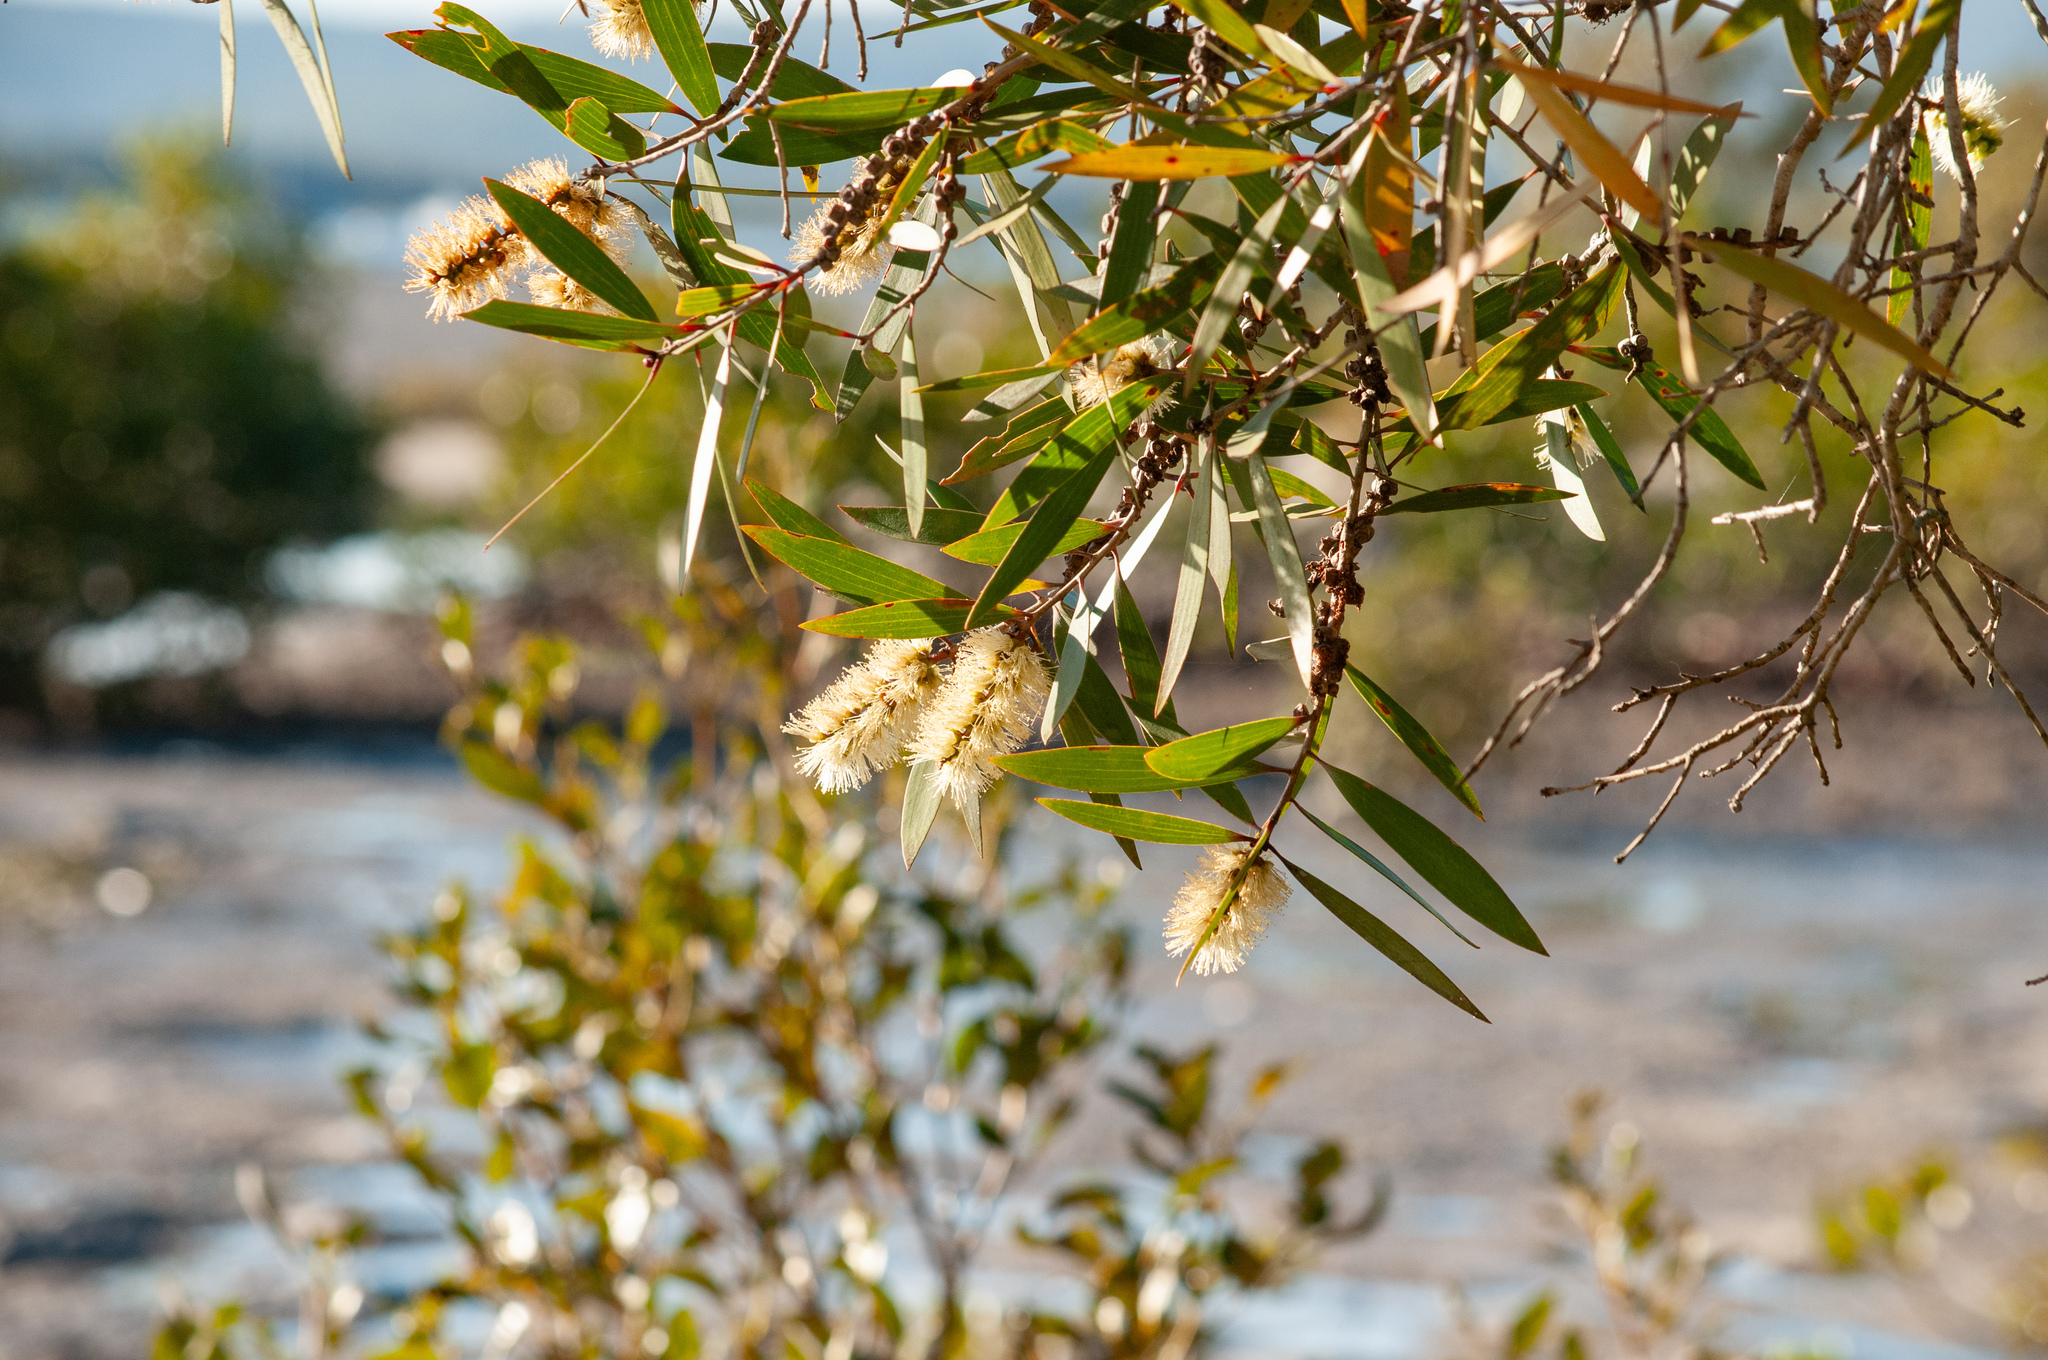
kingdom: Plantae
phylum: Tracheophyta
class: Magnoliopsida
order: Myrtales
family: Myrtaceae
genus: Melaleuca
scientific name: Melaleuca quinquenervia
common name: Punktree
